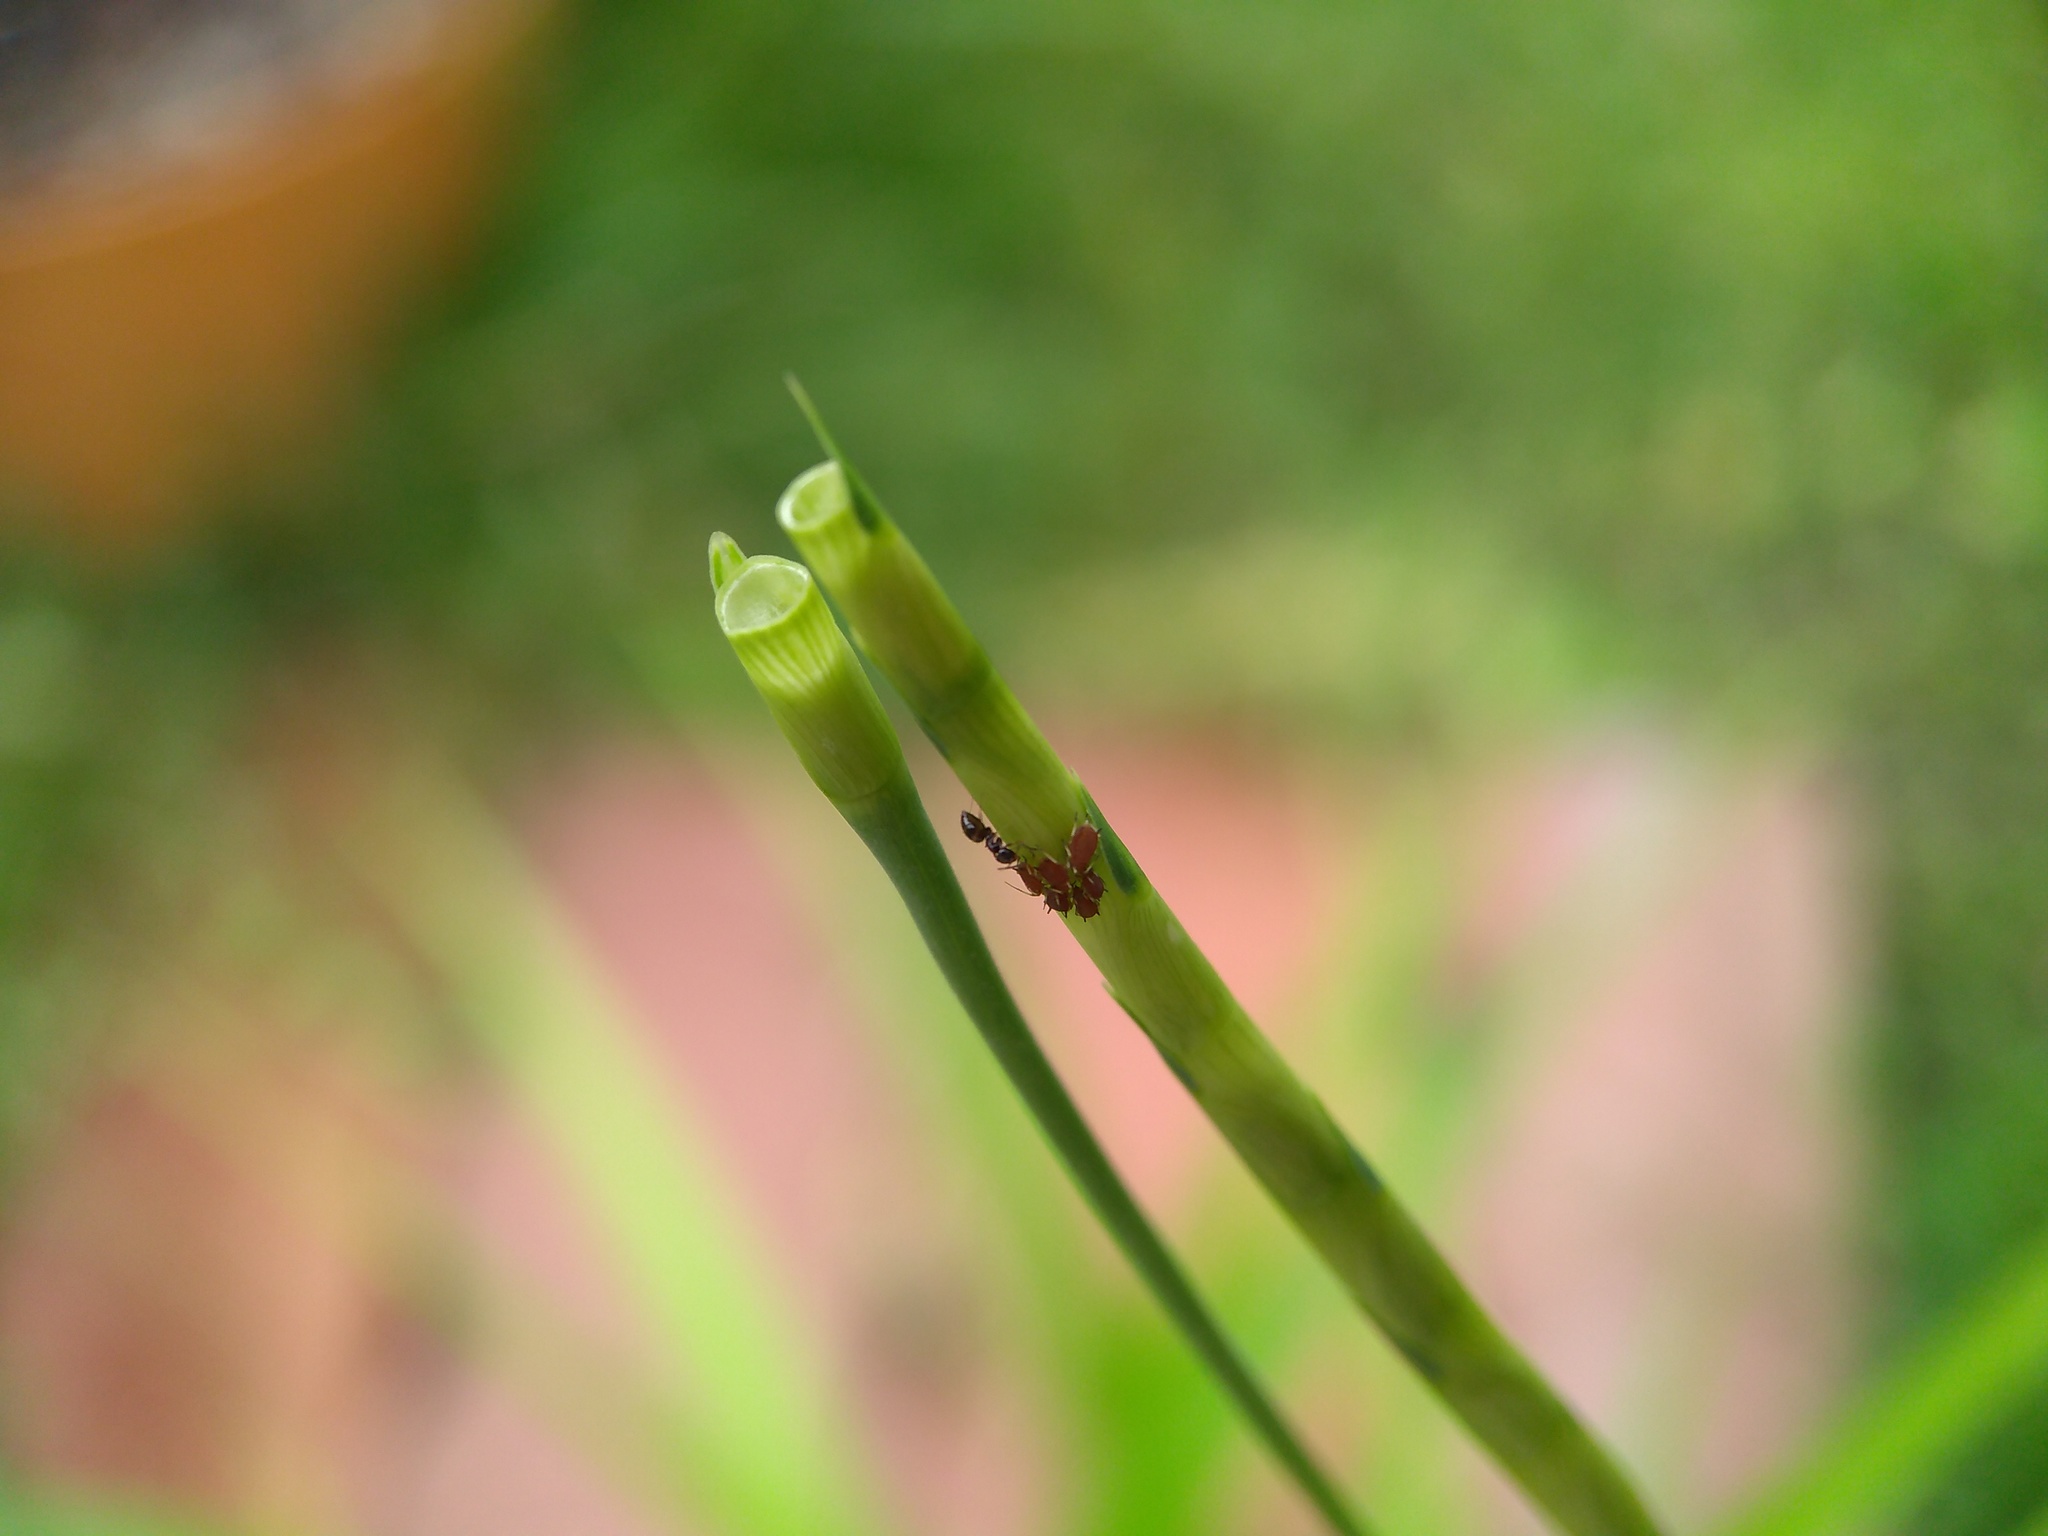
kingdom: Animalia
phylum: Arthropoda
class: Insecta
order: Hymenoptera
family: Formicidae
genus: Brachymyrmex
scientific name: Brachymyrmex patagonicus
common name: Dark rover ant
